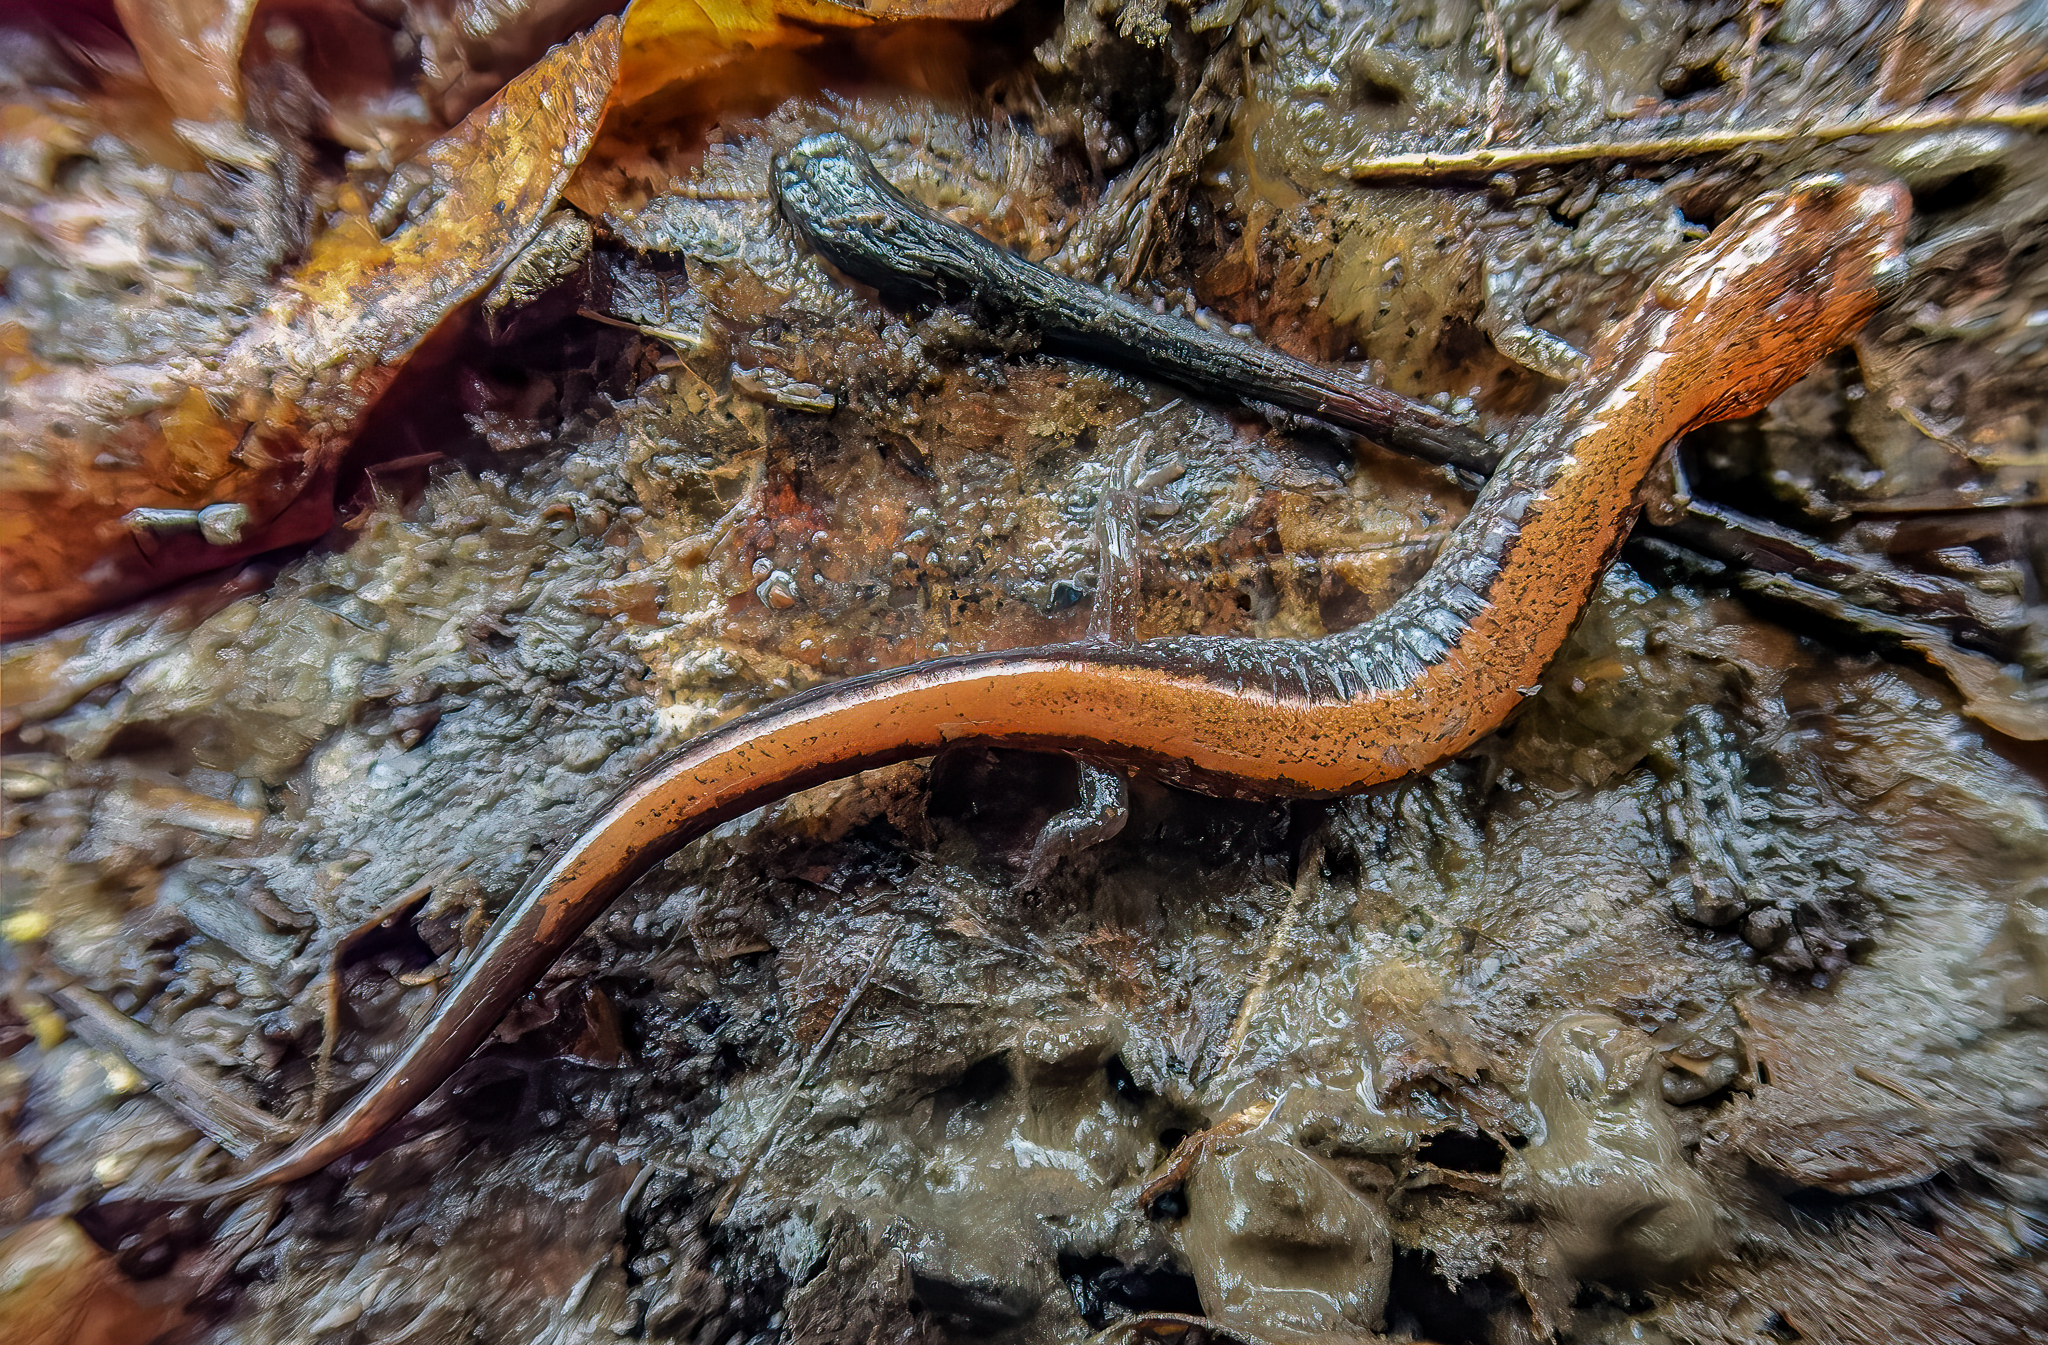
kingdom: Animalia
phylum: Chordata
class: Amphibia
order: Caudata
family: Plethodontidae
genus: Plethodon
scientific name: Plethodon cinereus
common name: Redback salamander
